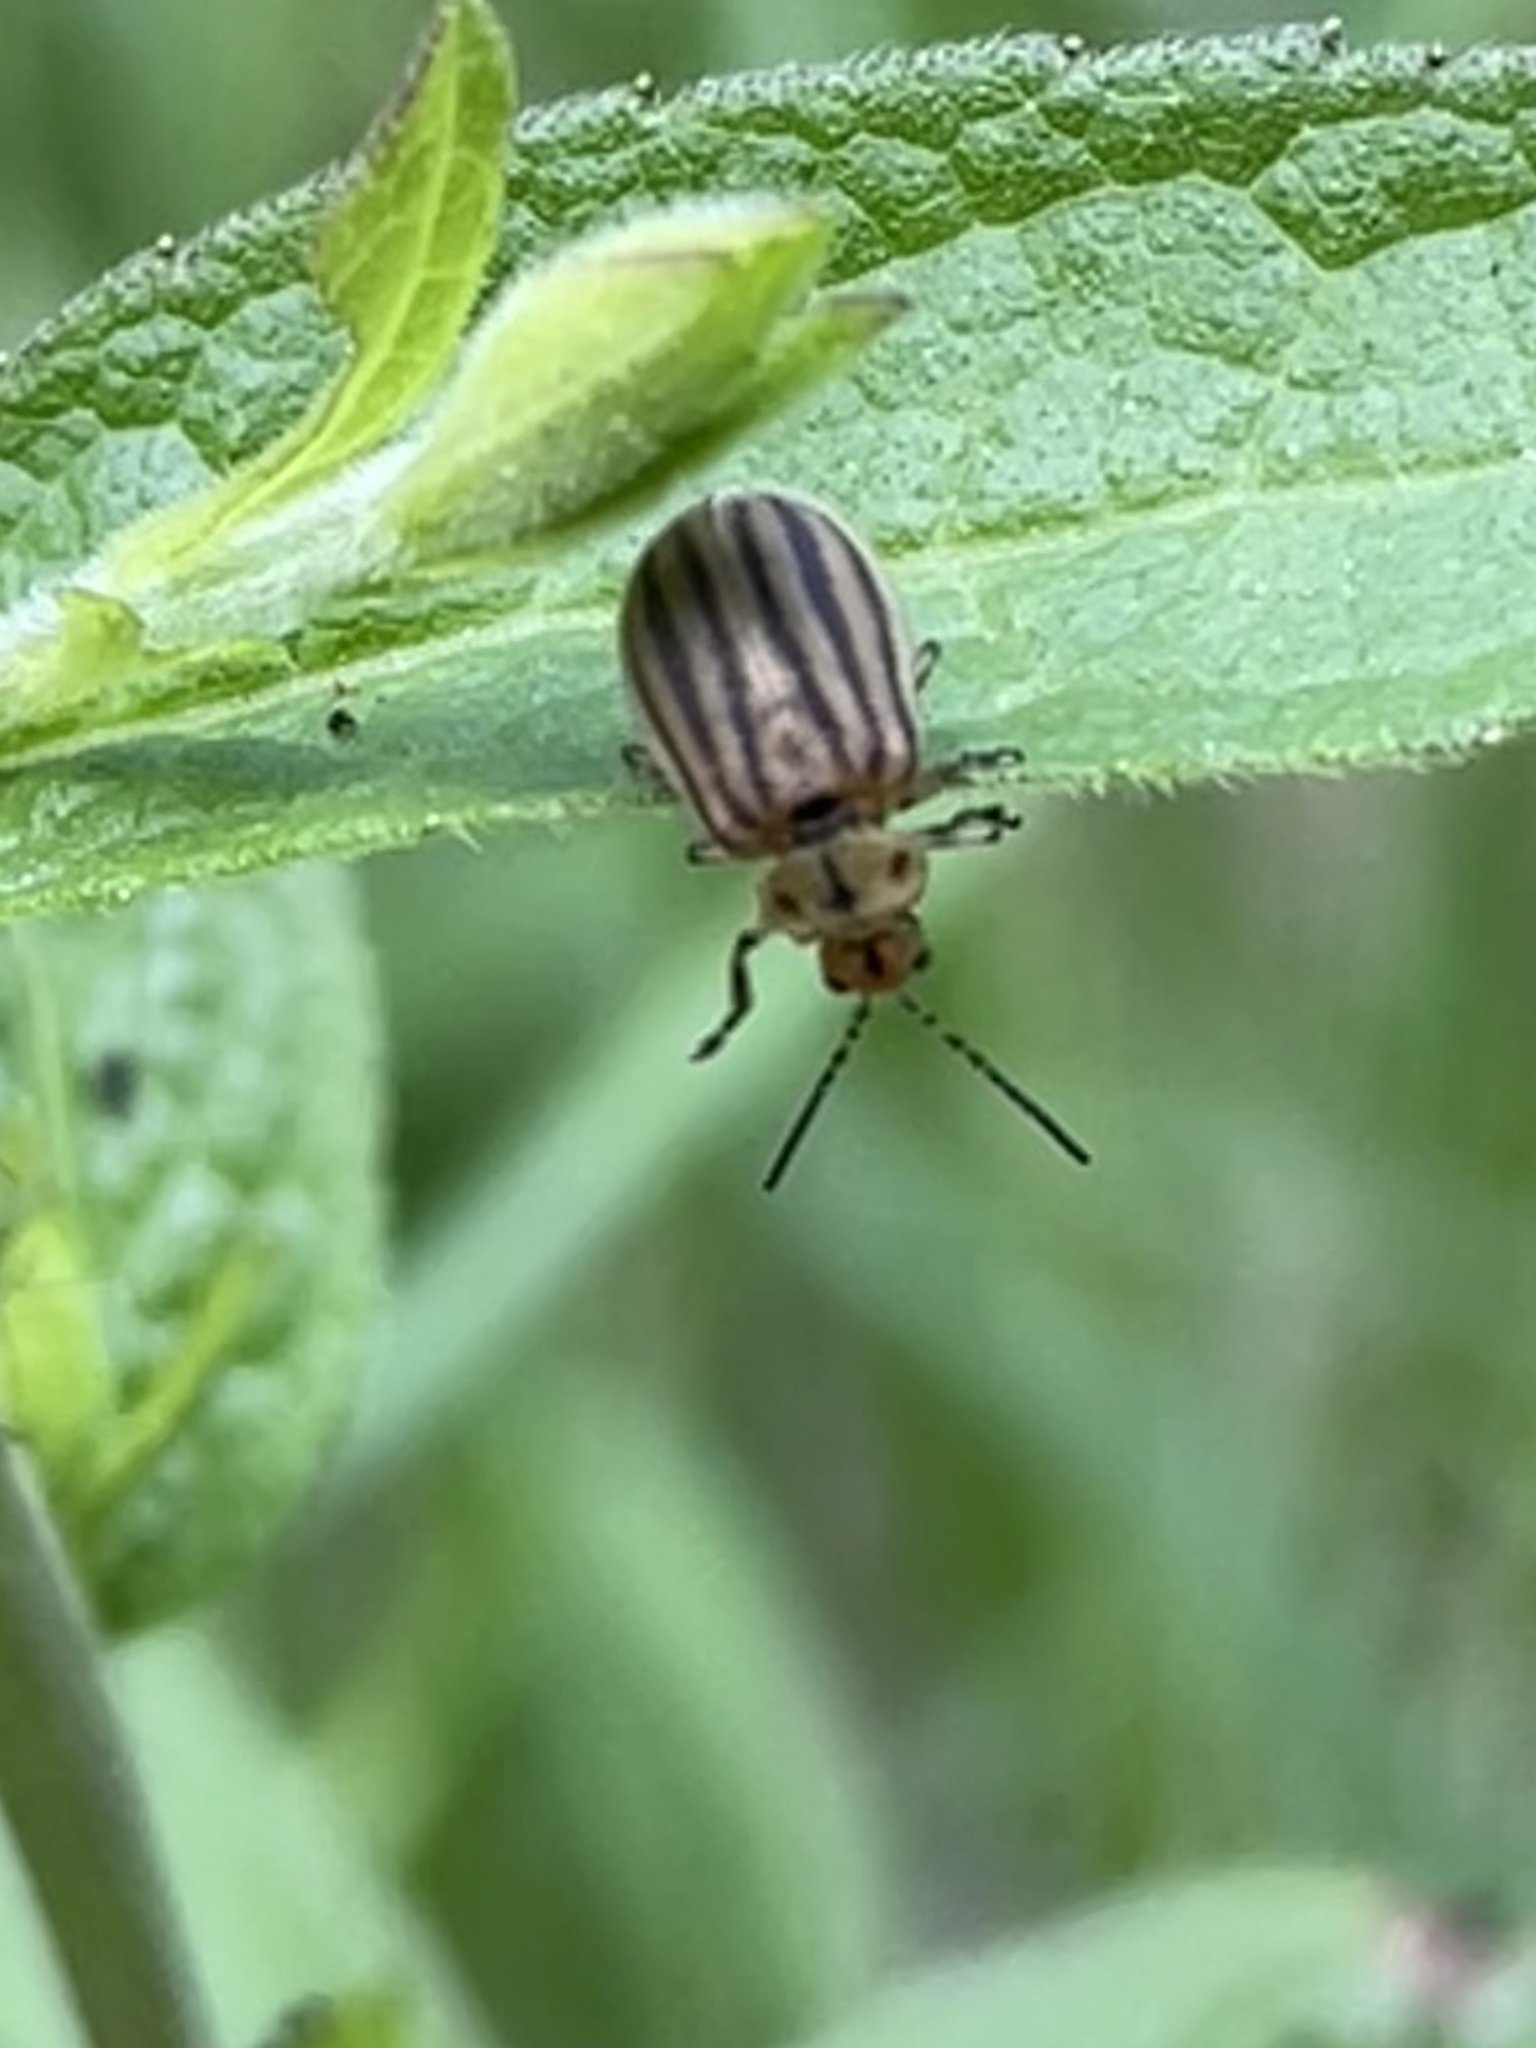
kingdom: Animalia
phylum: Arthropoda
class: Insecta
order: Coleoptera
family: Chrysomelidae
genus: Ophraella
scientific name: Ophraella conferta
